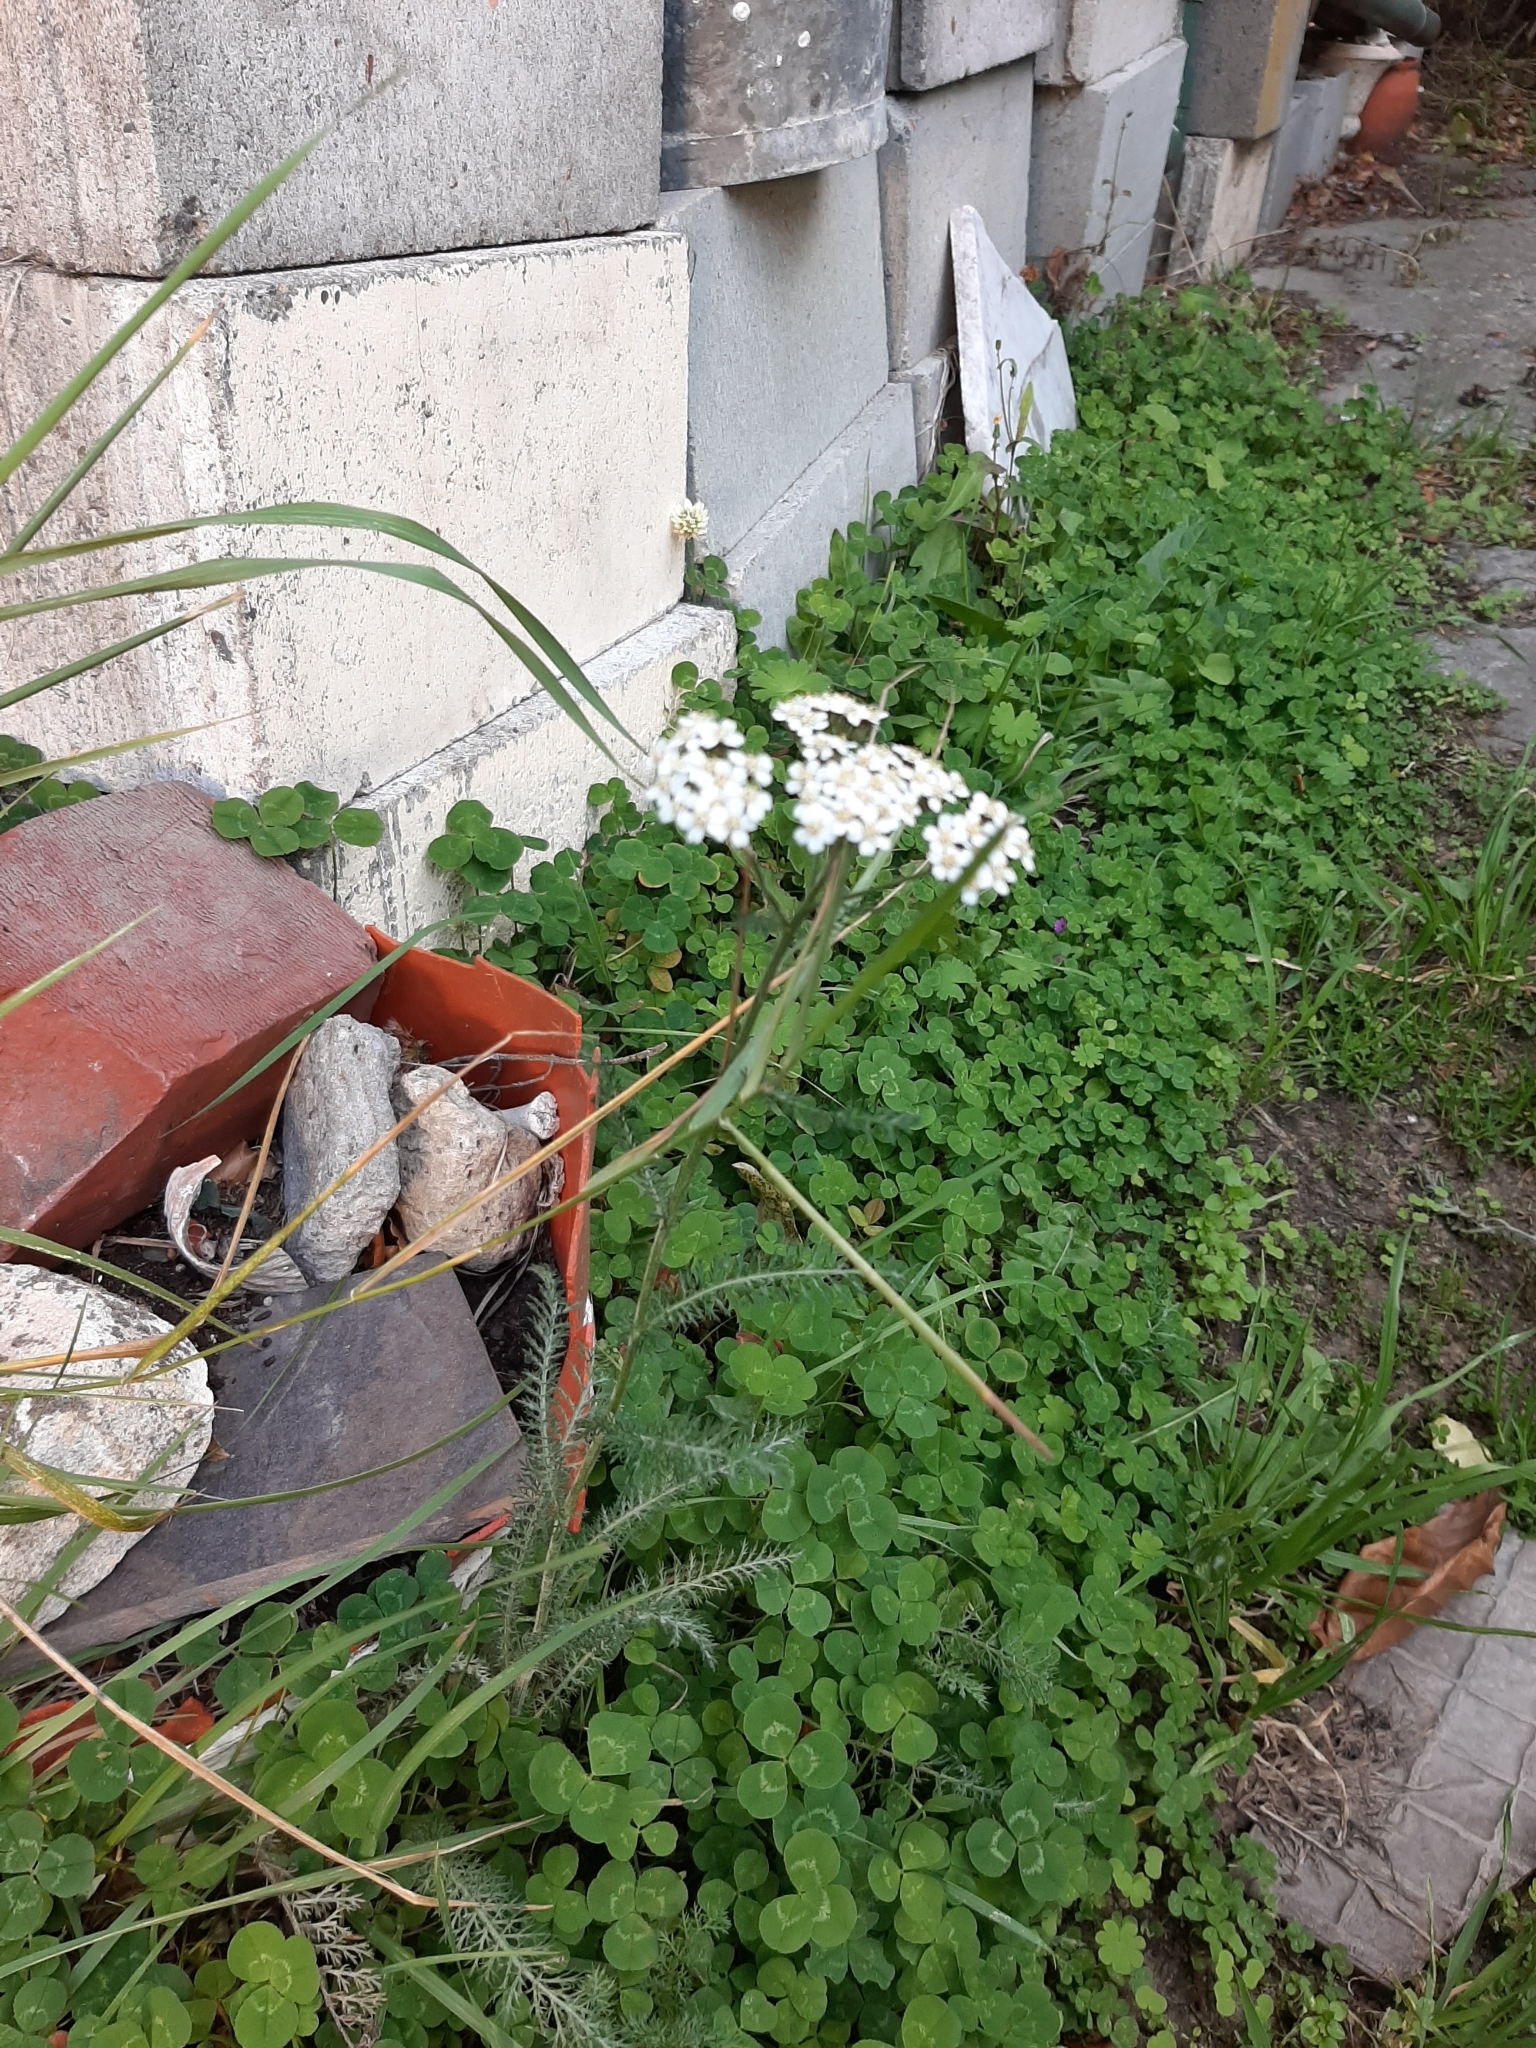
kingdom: Plantae
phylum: Tracheophyta
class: Magnoliopsida
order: Asterales
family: Asteraceae
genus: Achillea
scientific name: Achillea millefolium
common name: Yarrow
